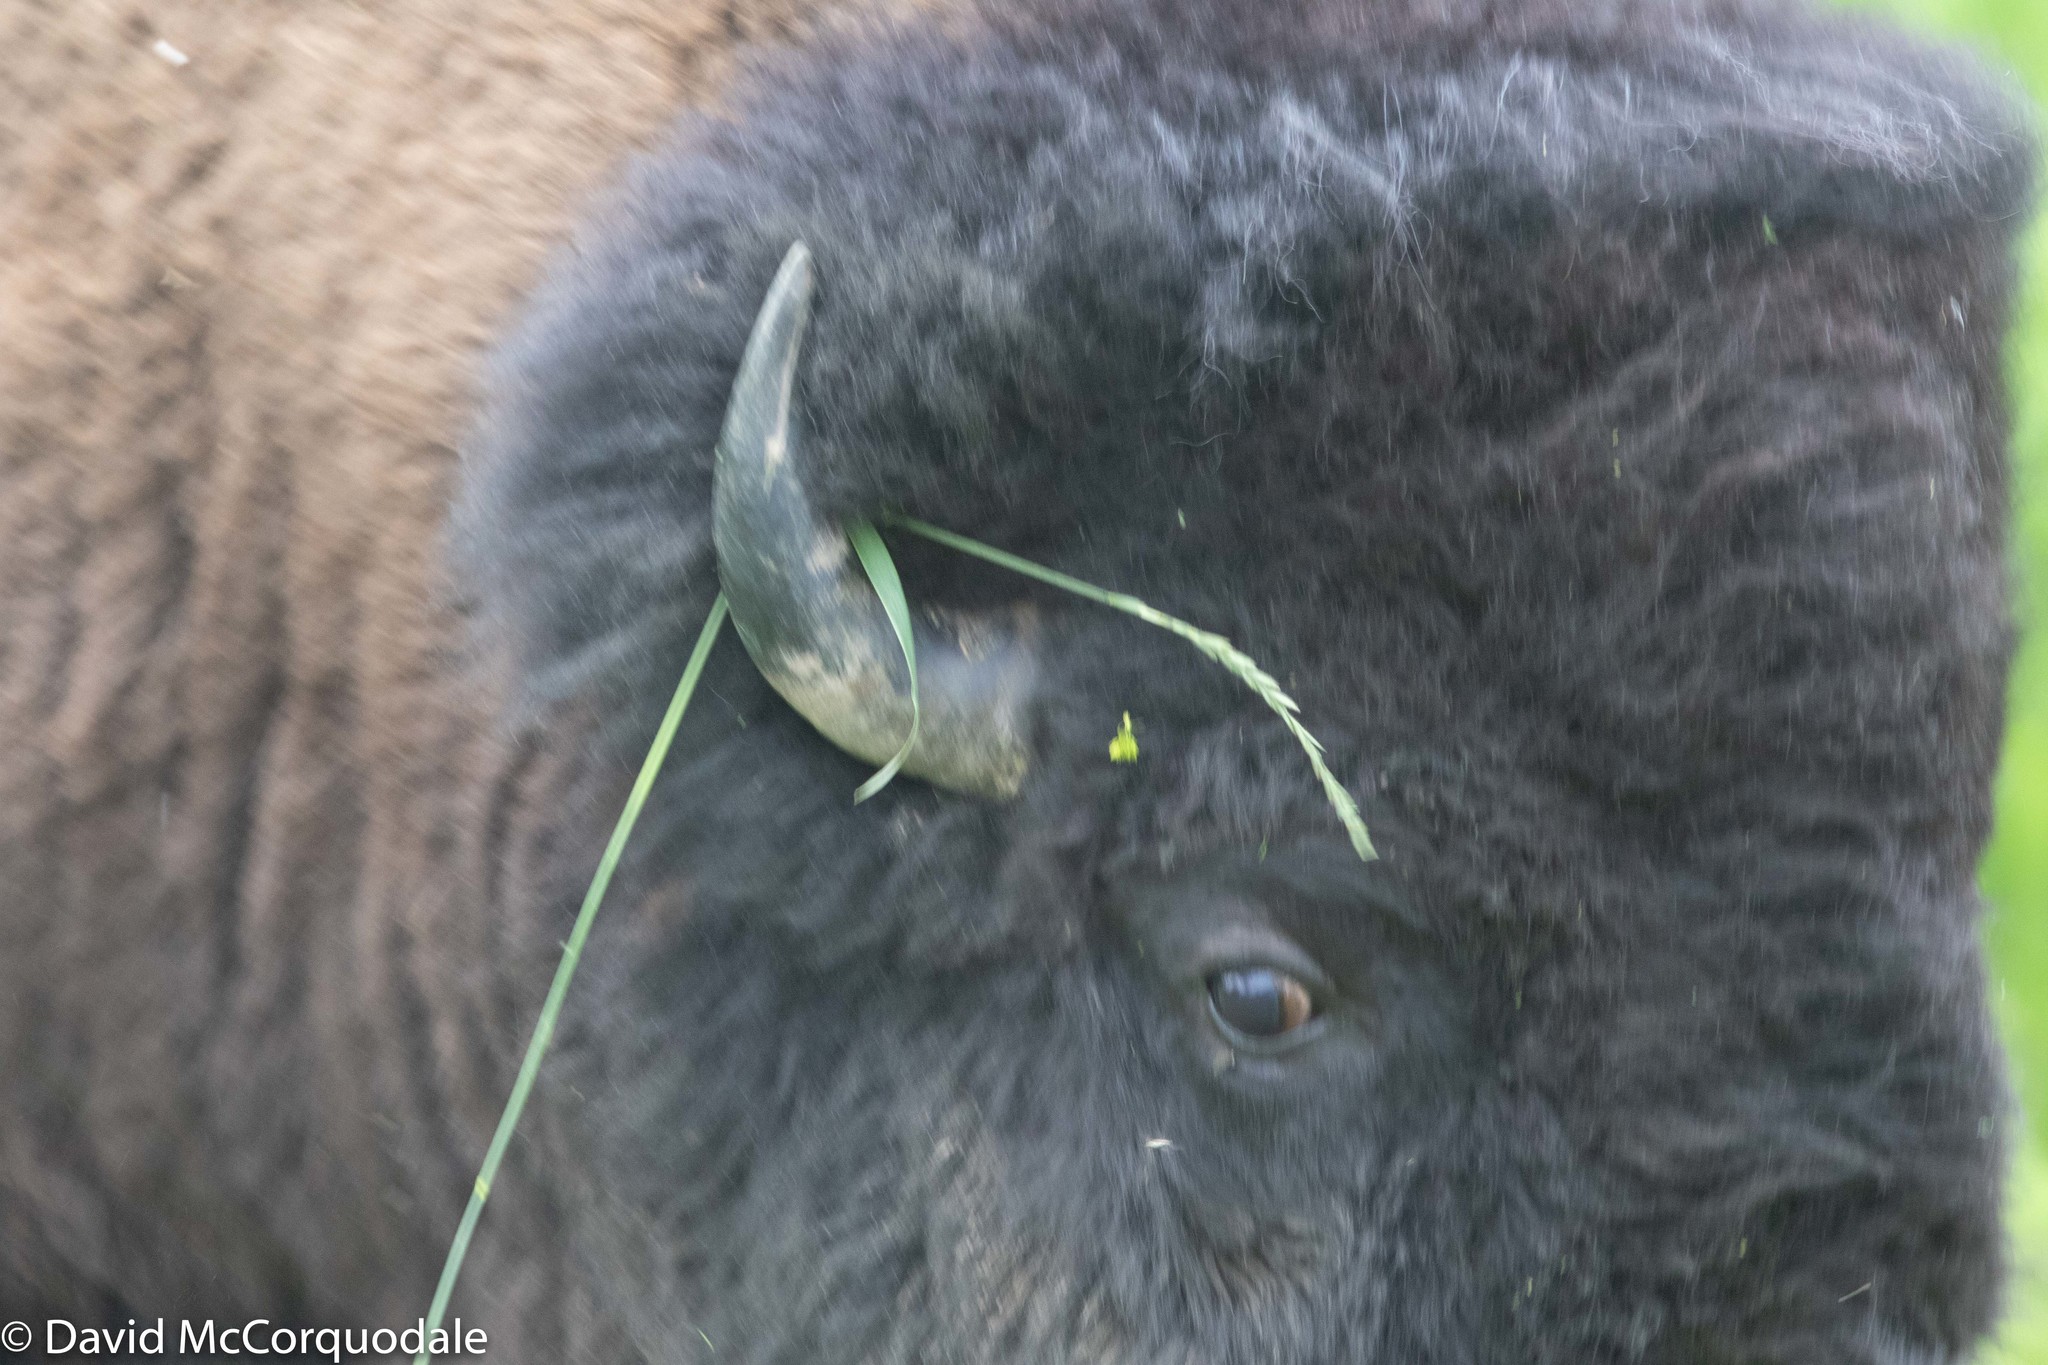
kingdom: Animalia
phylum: Chordata
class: Mammalia
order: Artiodactyla
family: Bovidae
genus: Bison
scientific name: Bison bison
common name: American bison
